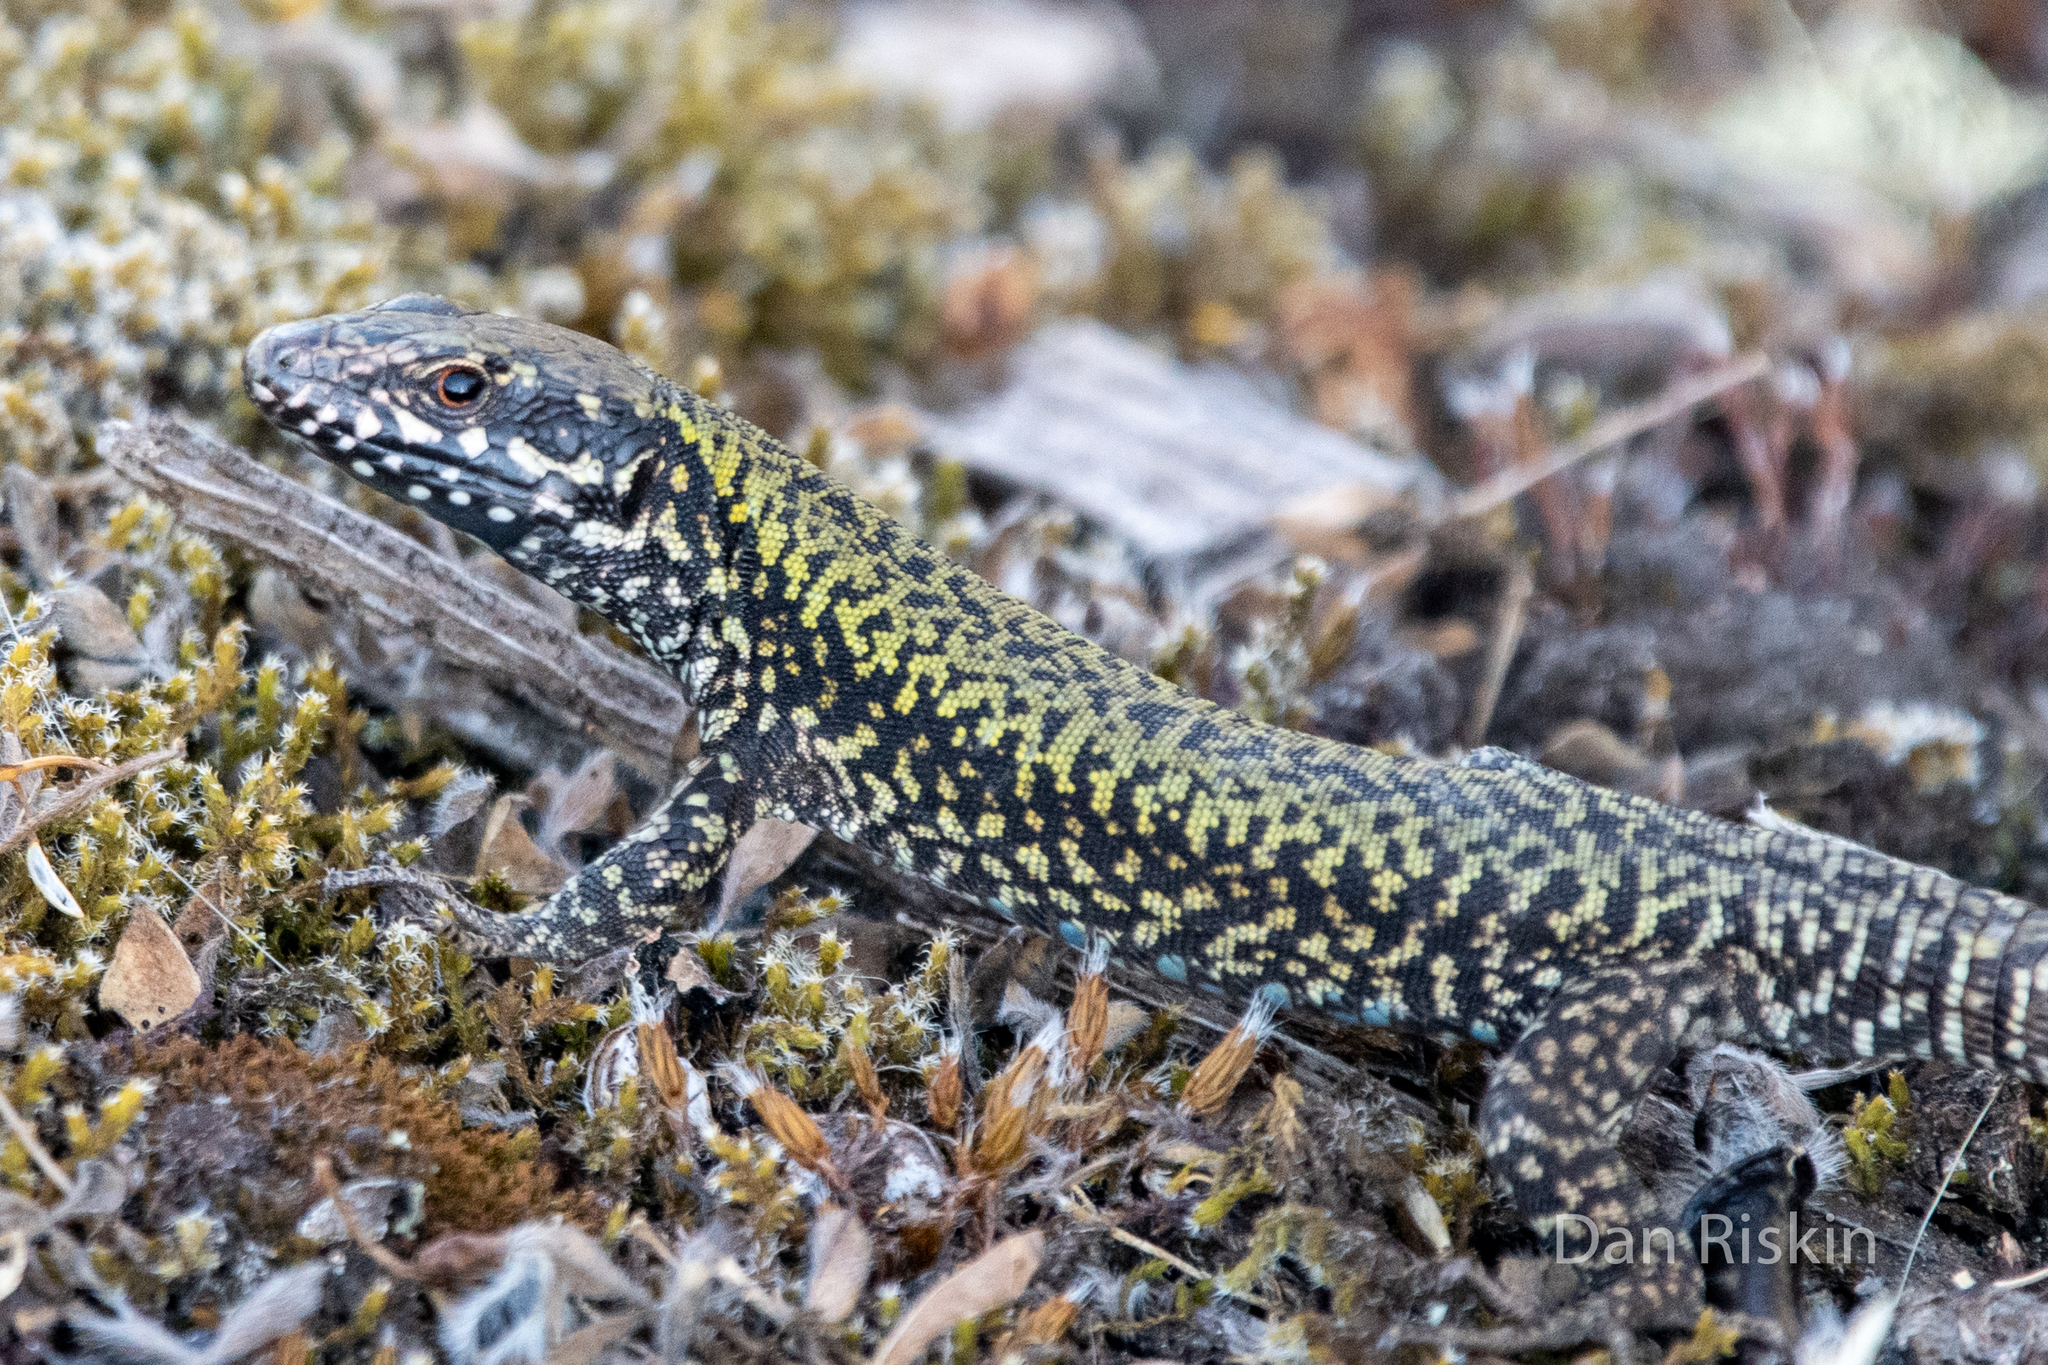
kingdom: Animalia
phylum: Chordata
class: Squamata
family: Lacertidae
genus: Podarcis
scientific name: Podarcis muralis
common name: Common wall lizard
